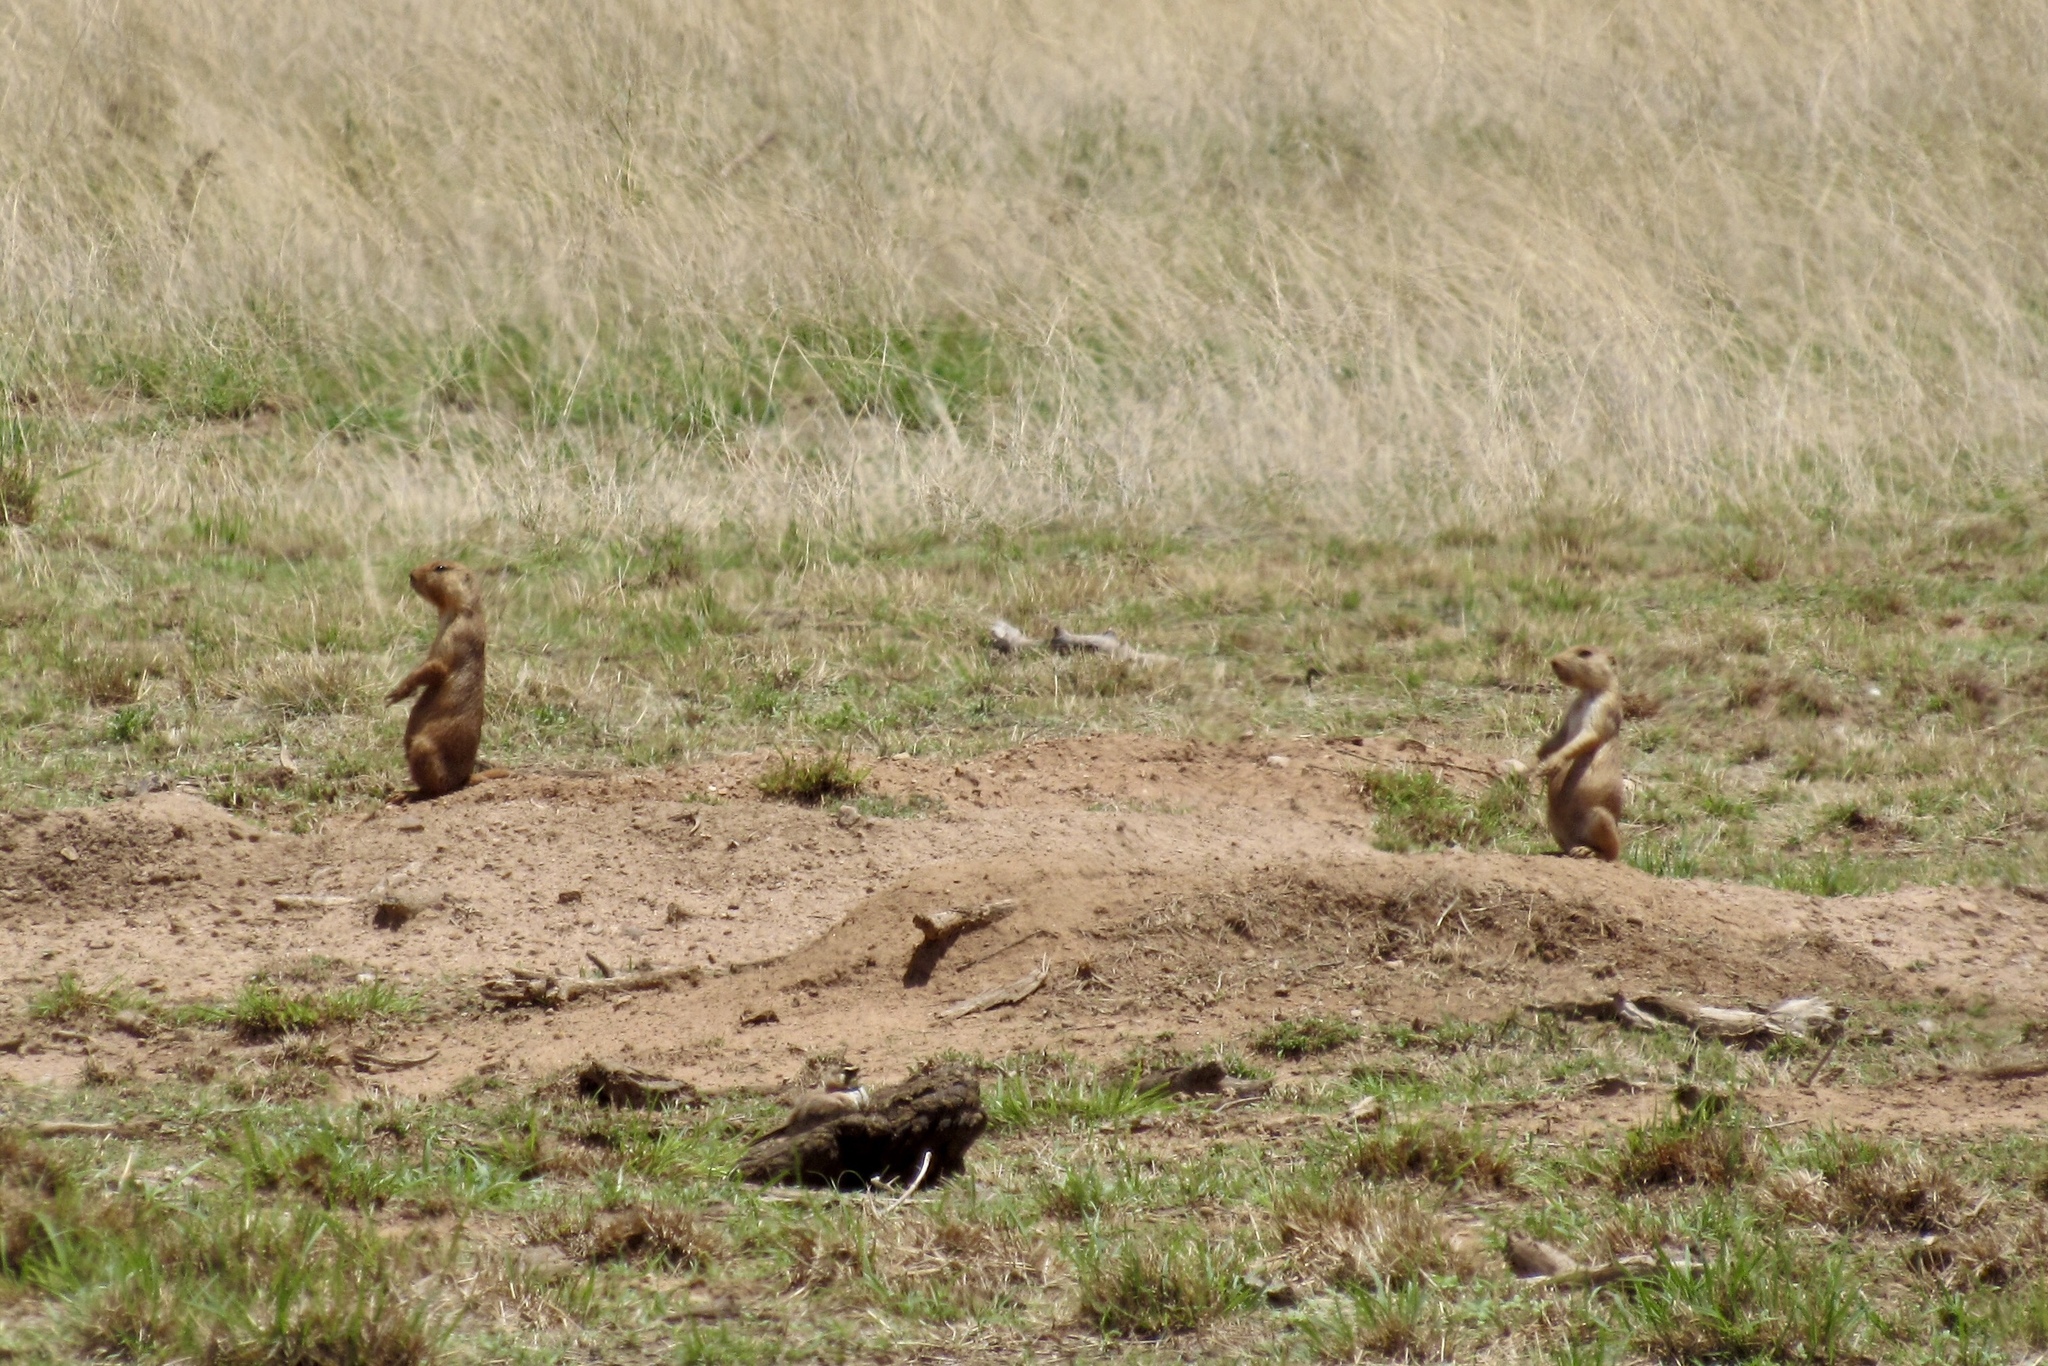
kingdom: Animalia
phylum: Chordata
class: Mammalia
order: Rodentia
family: Sciuridae
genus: Cynomys
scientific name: Cynomys ludovicianus
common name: Black-tailed prairie dog
